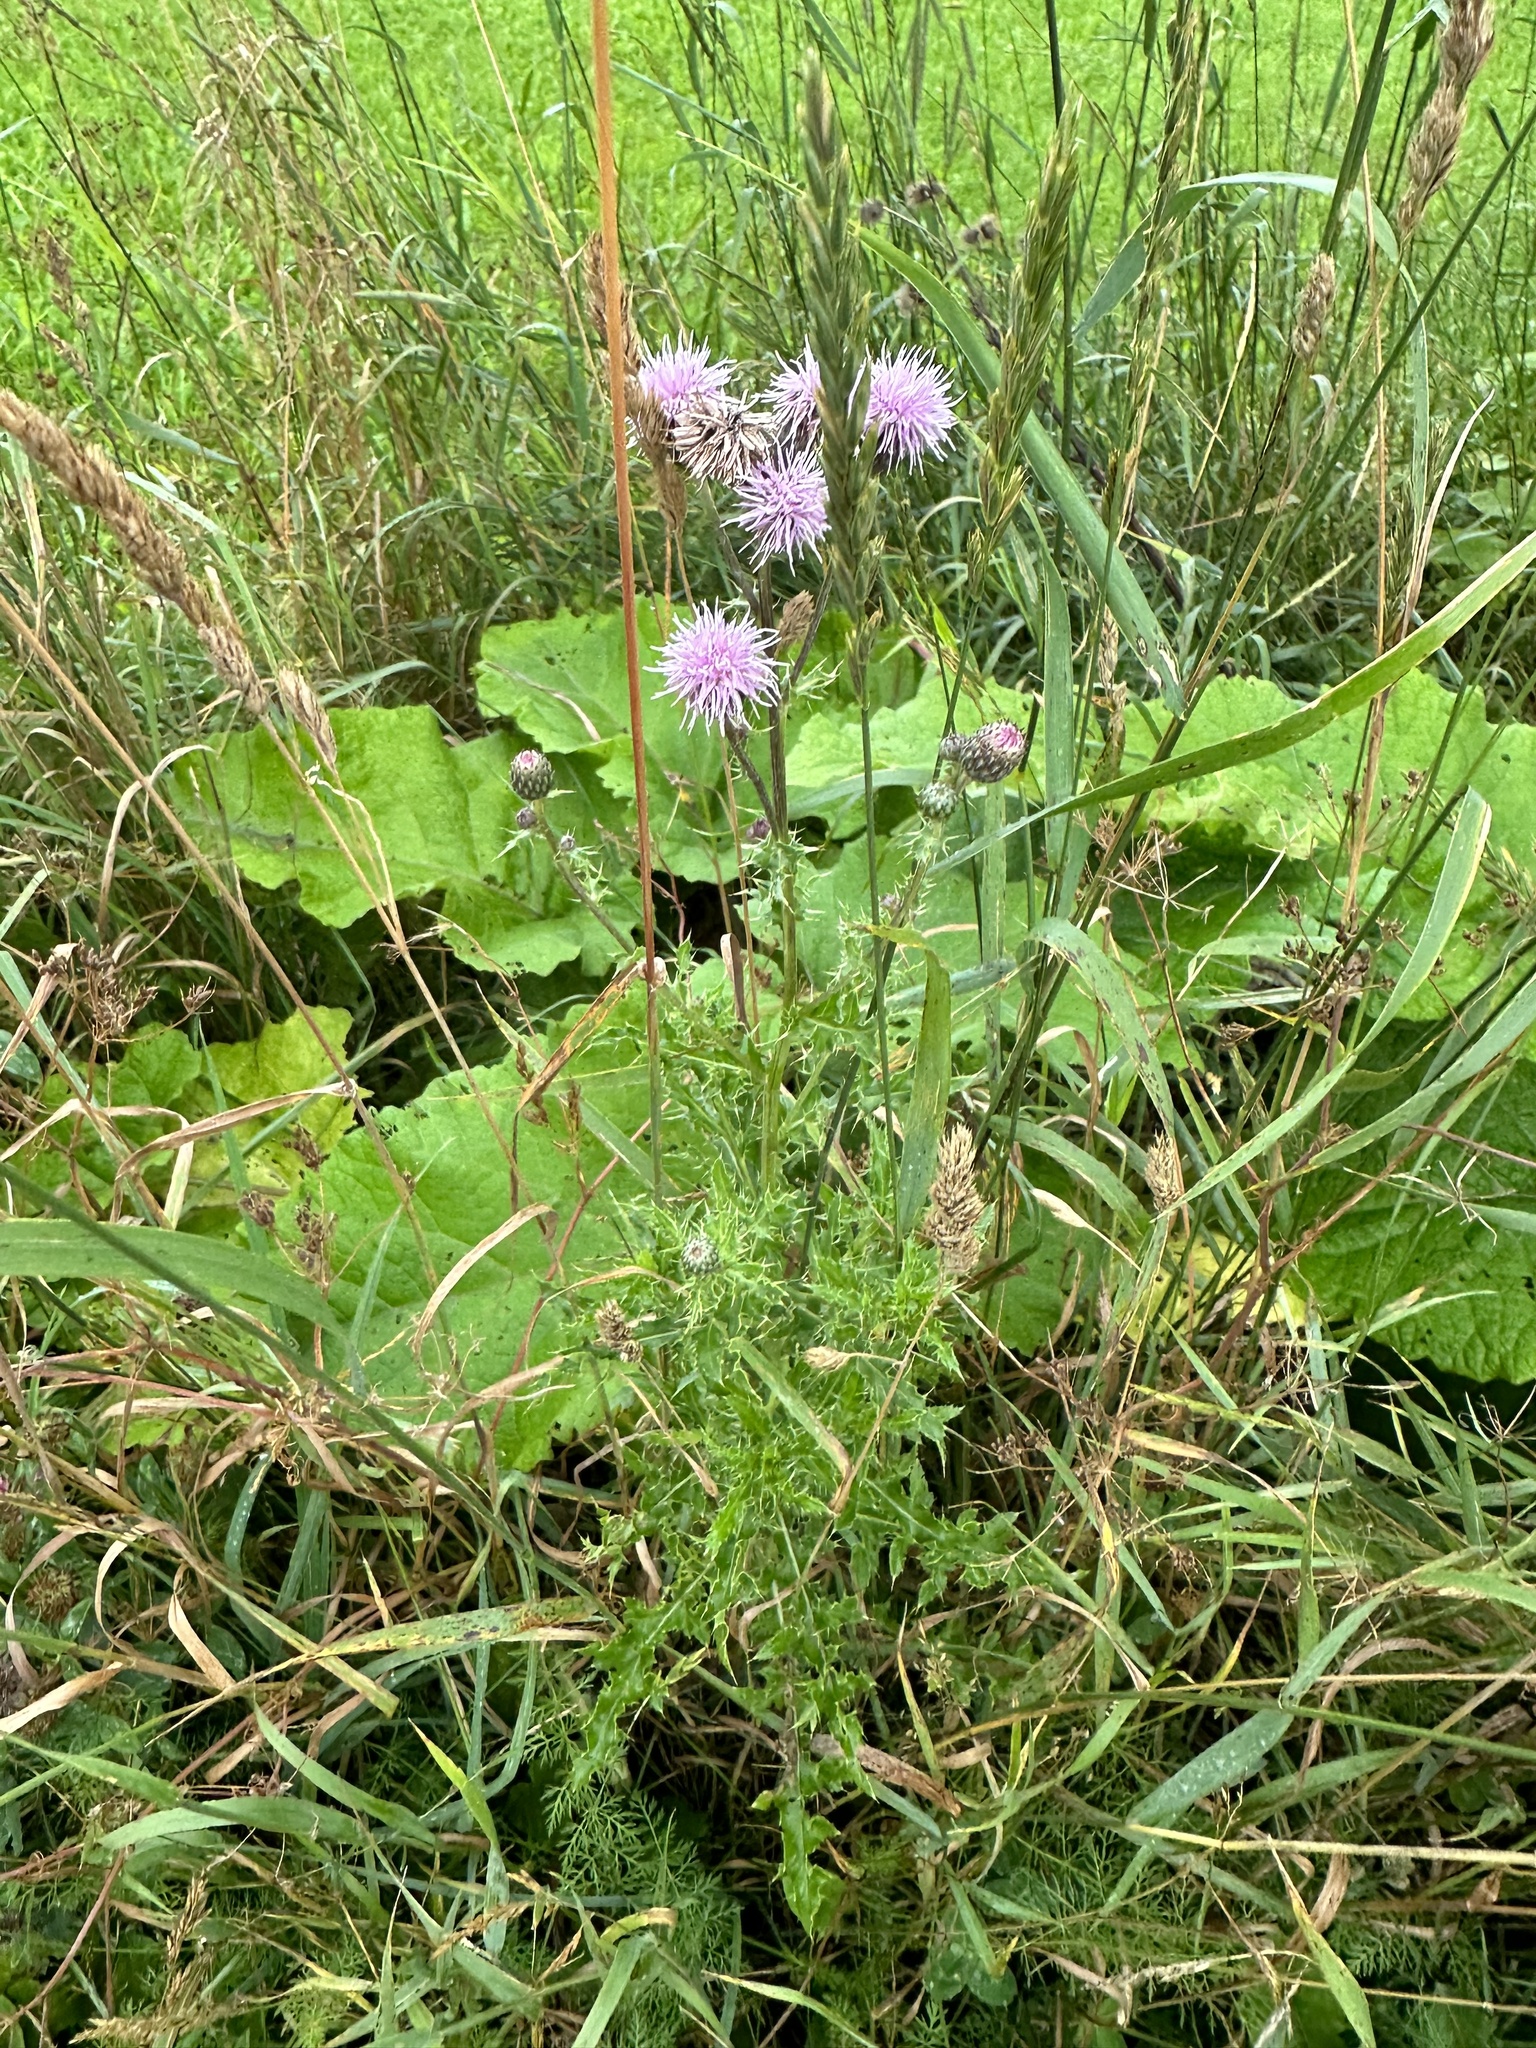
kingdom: Plantae
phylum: Tracheophyta
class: Magnoliopsida
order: Asterales
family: Asteraceae
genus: Cirsium
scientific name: Cirsium arvense
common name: Creeping thistle
